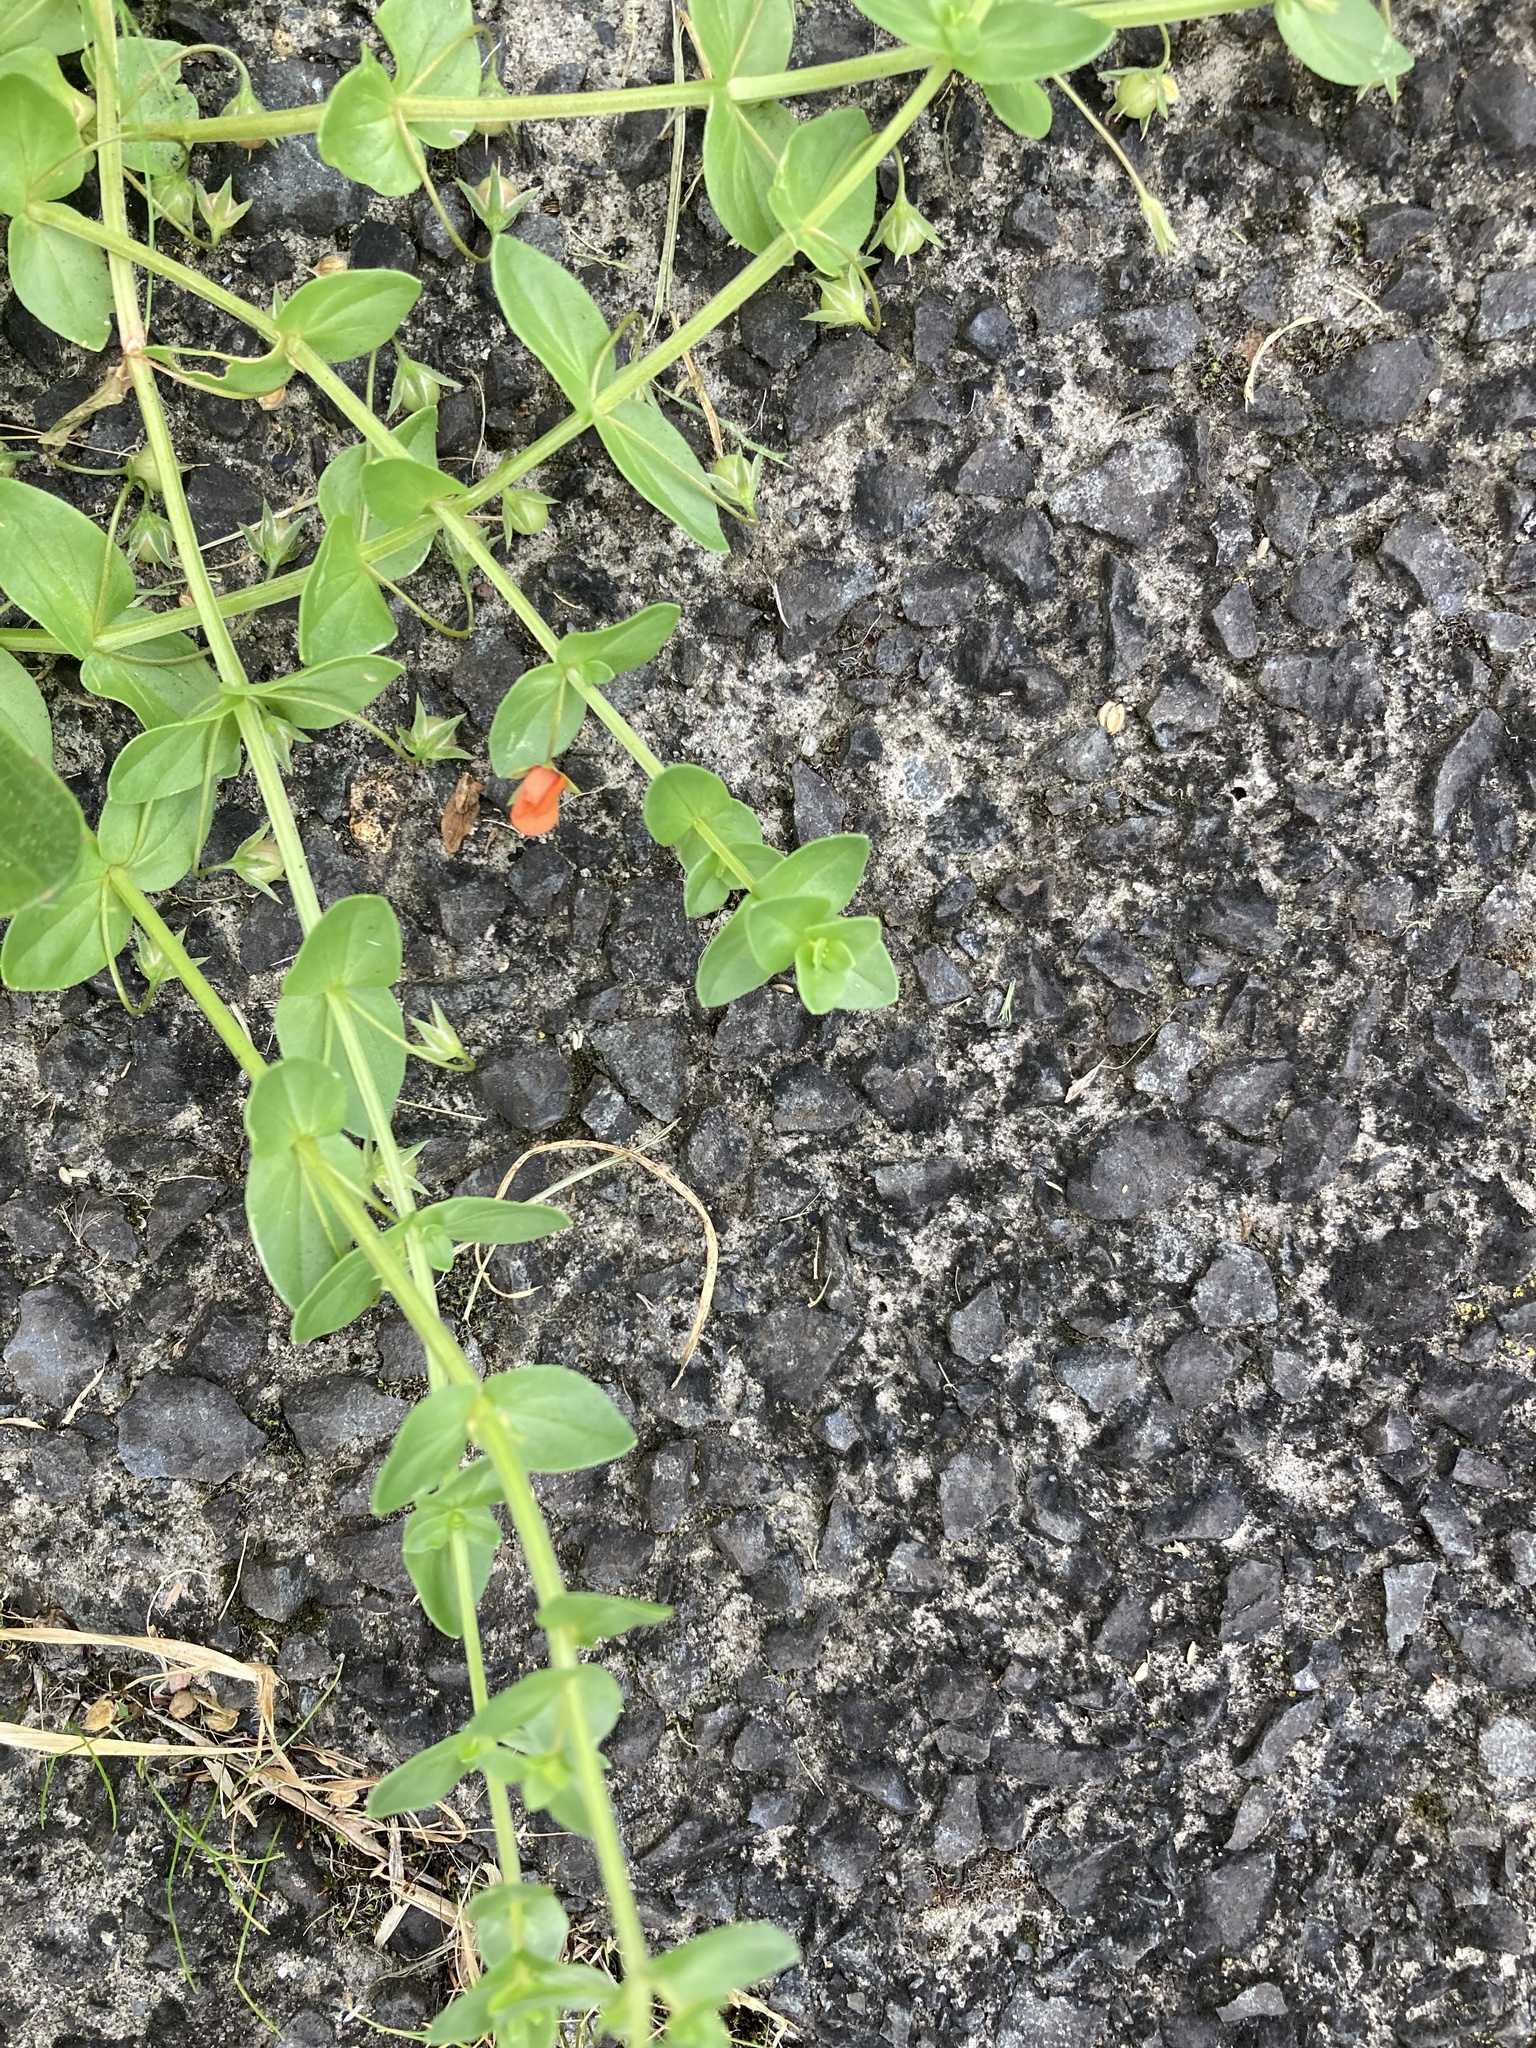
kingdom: Plantae
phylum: Tracheophyta
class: Magnoliopsida
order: Ericales
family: Primulaceae
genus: Lysimachia
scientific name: Lysimachia arvensis
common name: Scarlet pimpernel
